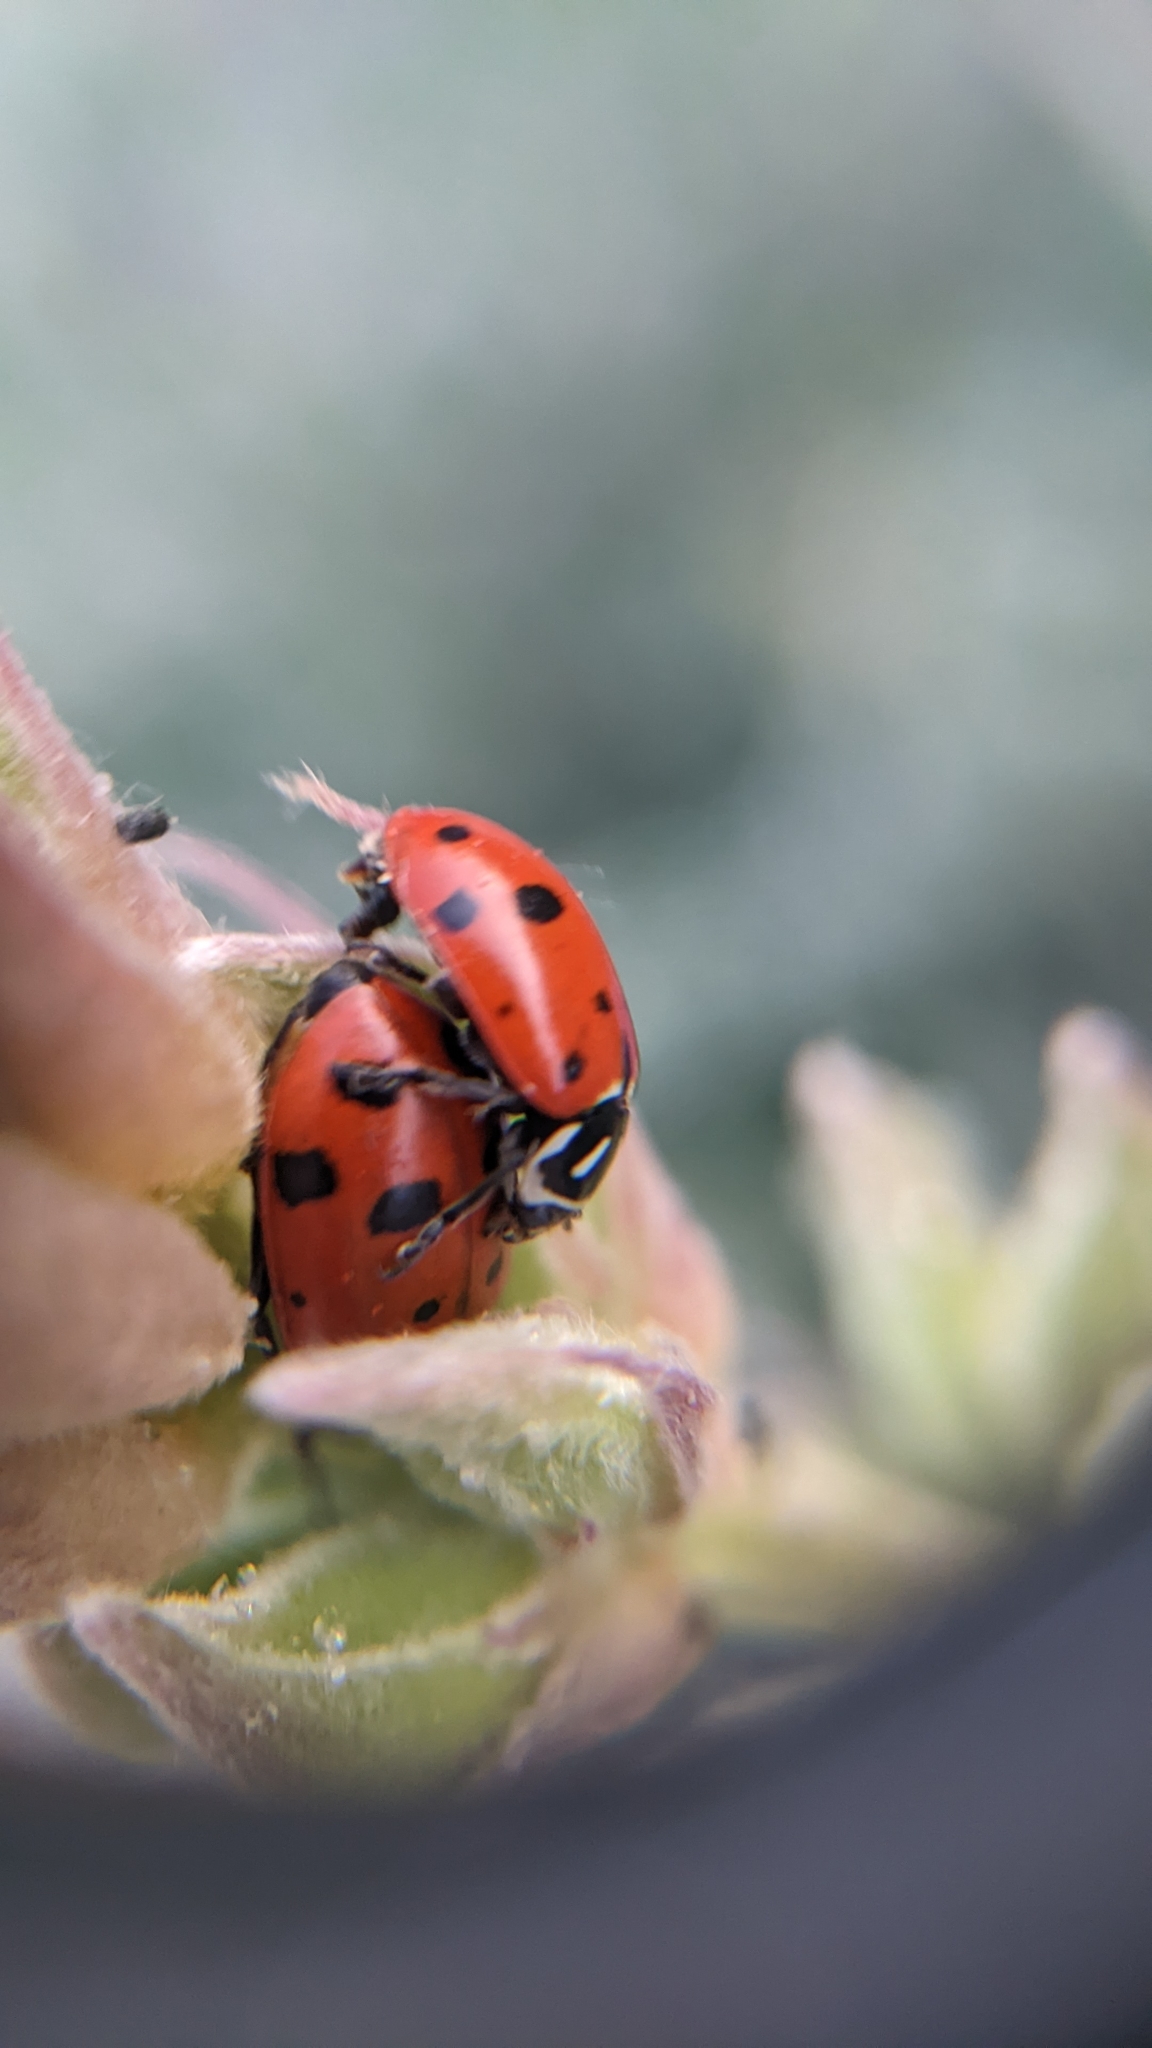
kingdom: Animalia
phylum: Arthropoda
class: Insecta
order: Coleoptera
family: Coccinellidae
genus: Hippodamia
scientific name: Hippodamia convergens
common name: Convergent lady beetle
